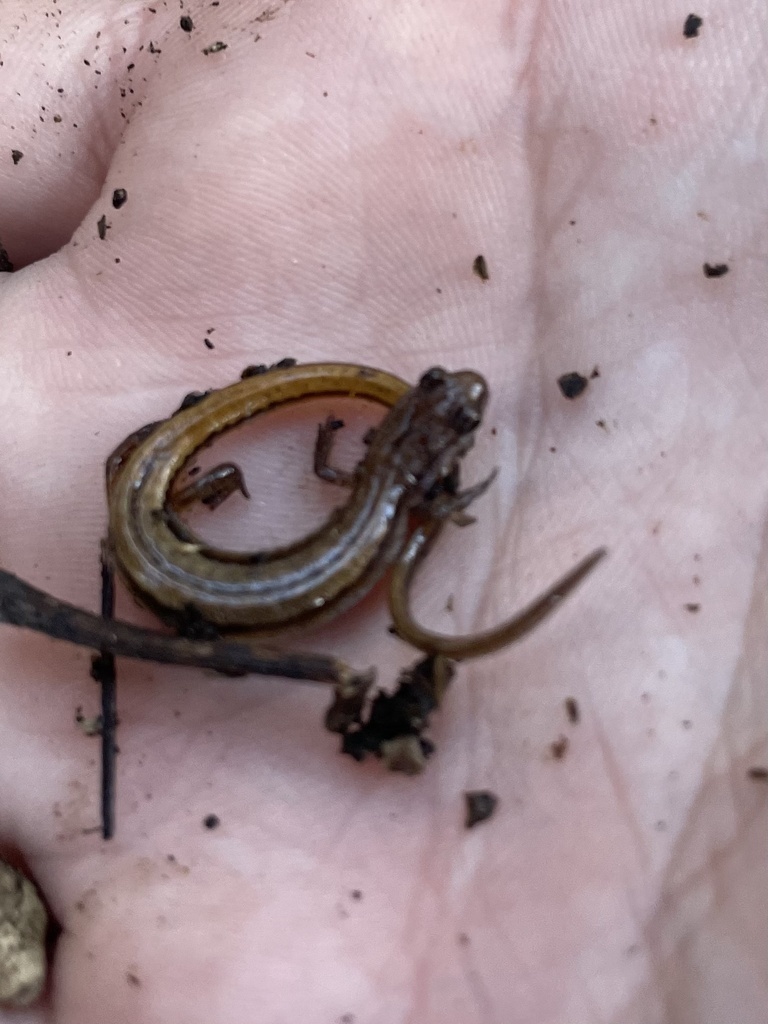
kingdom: Animalia
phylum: Chordata
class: Amphibia
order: Caudata
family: Plethodontidae
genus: Eurycea
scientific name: Eurycea chamberlaini
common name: Chamberlain's dwarf salamander
